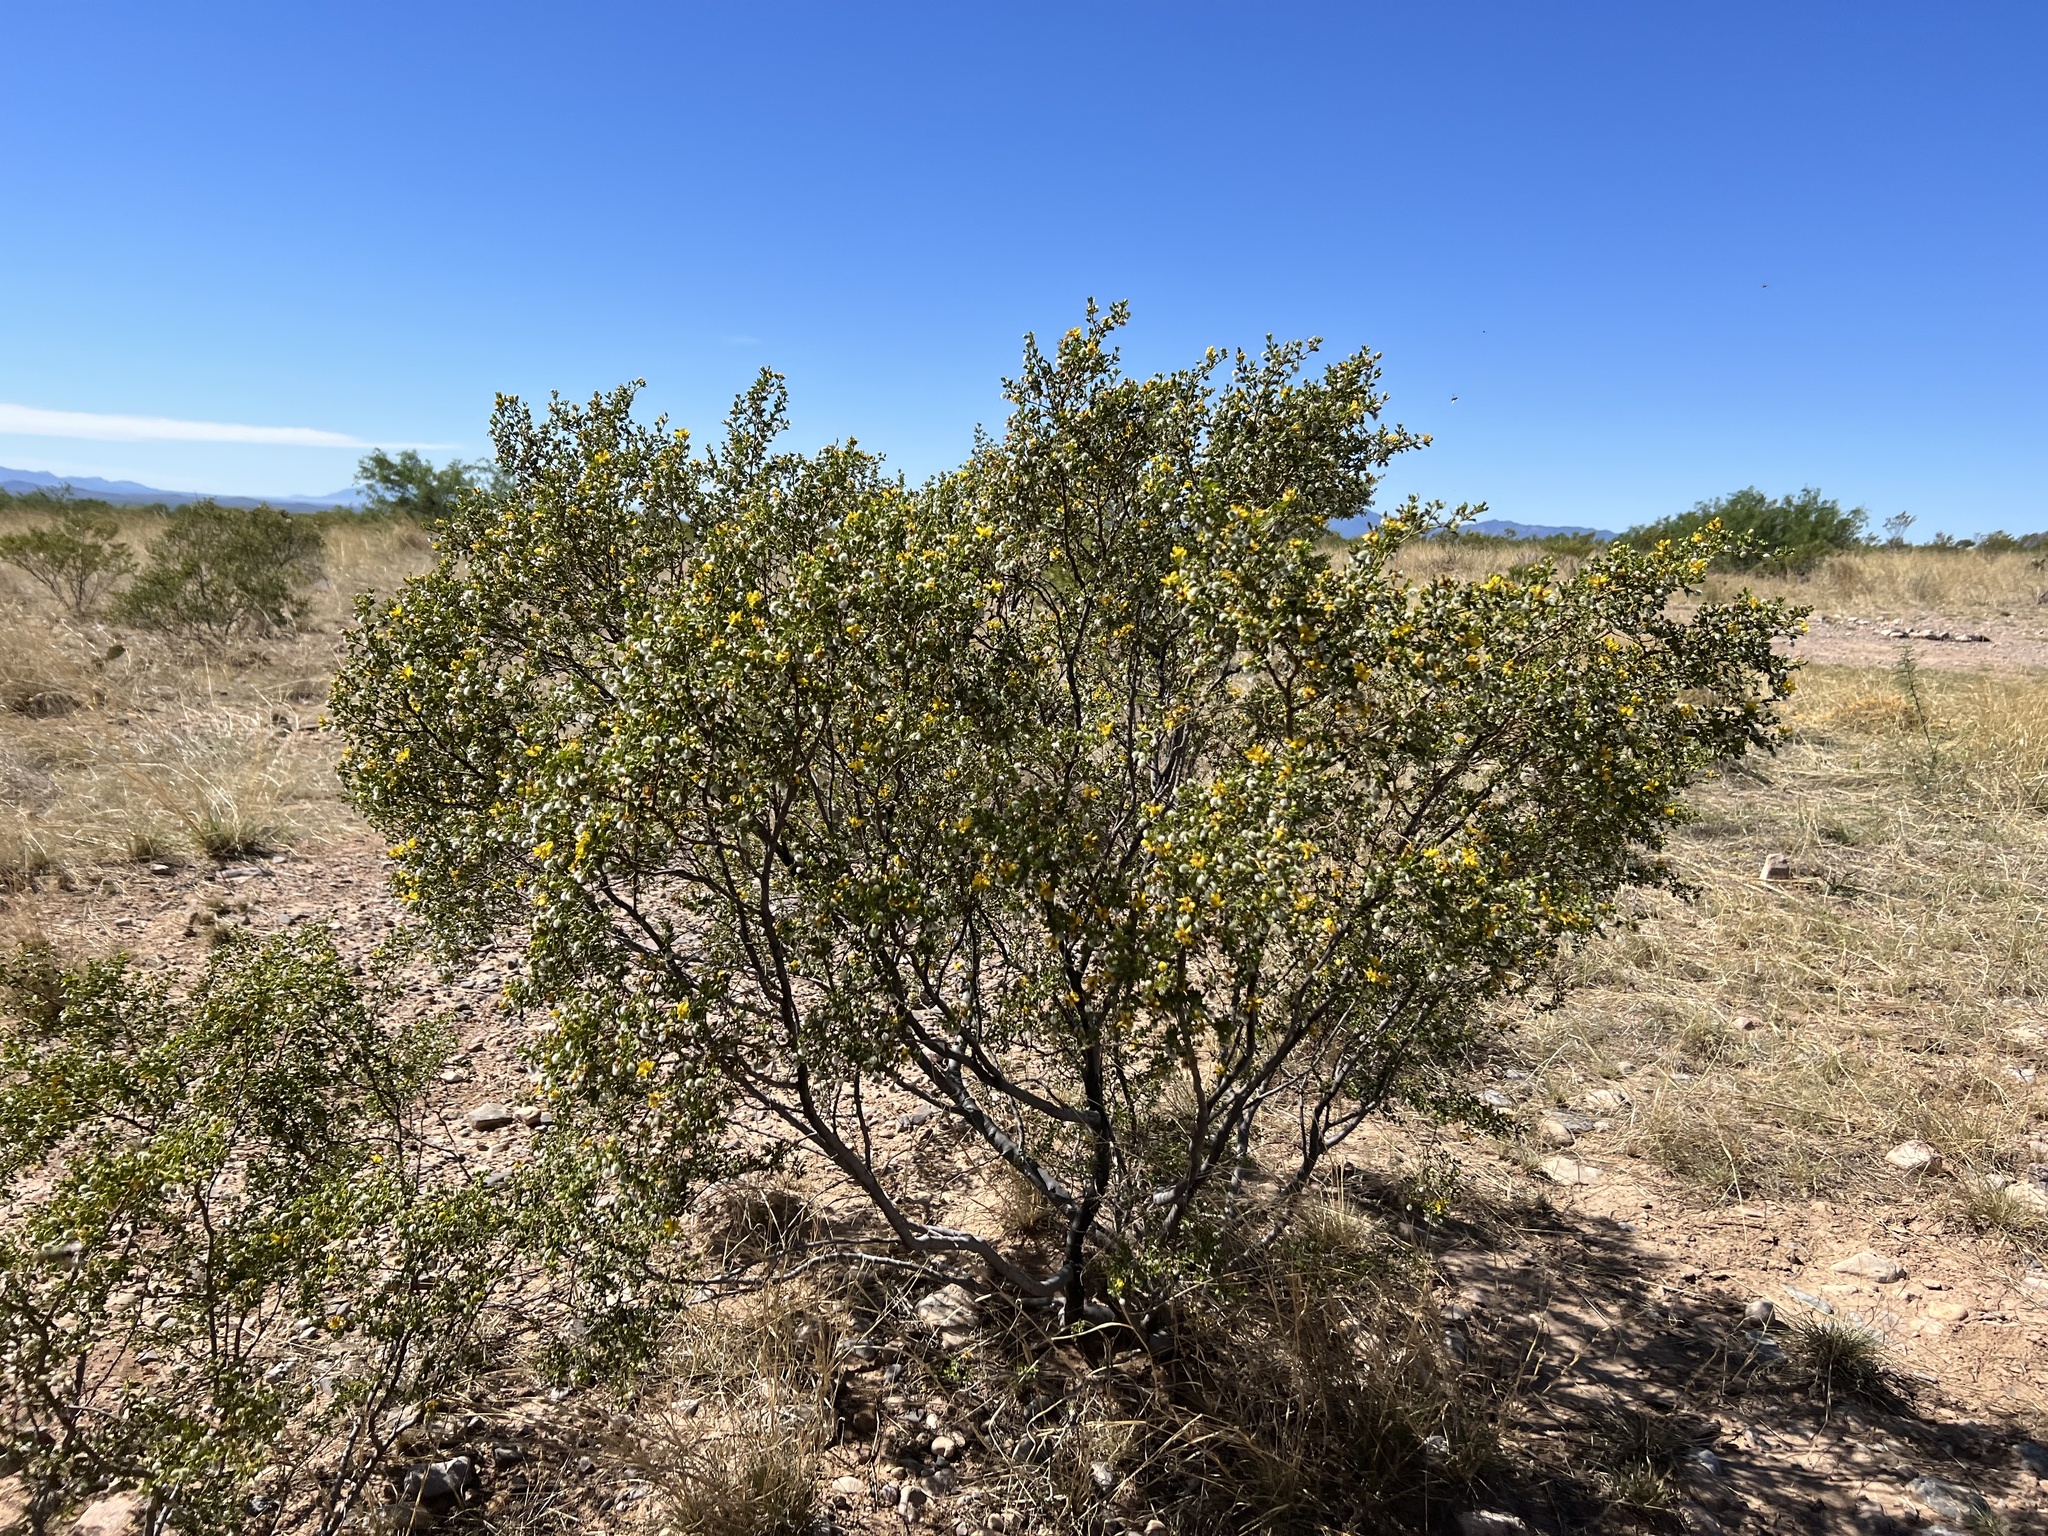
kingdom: Plantae
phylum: Tracheophyta
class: Magnoliopsida
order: Zygophyllales
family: Zygophyllaceae
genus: Larrea
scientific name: Larrea tridentata
